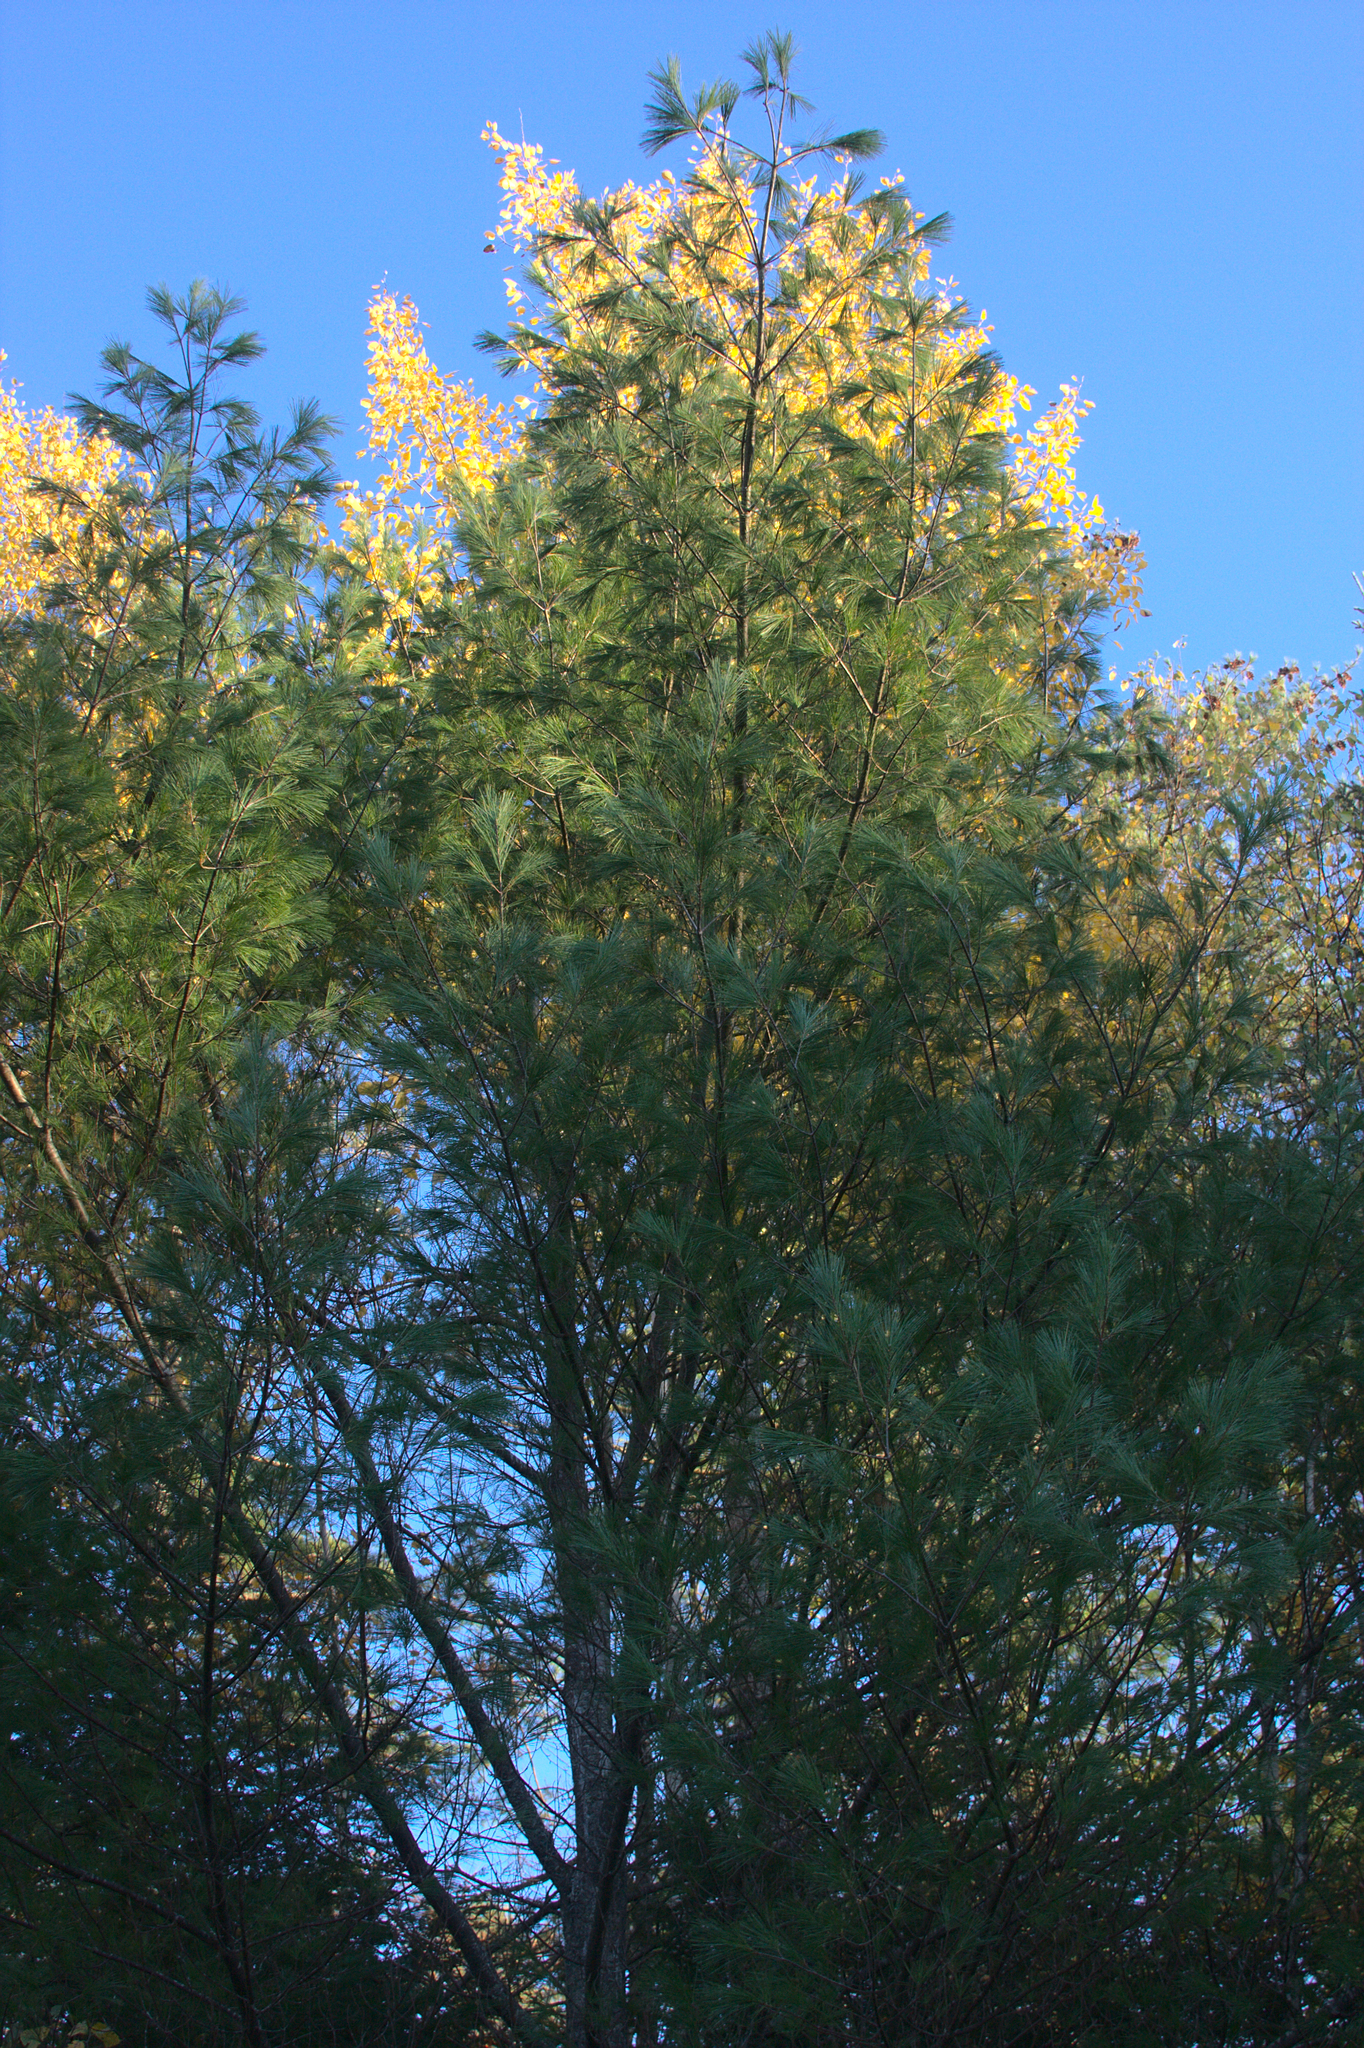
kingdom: Plantae
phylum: Tracheophyta
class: Pinopsida
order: Pinales
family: Pinaceae
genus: Pinus
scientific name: Pinus strobus
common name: Weymouth pine
